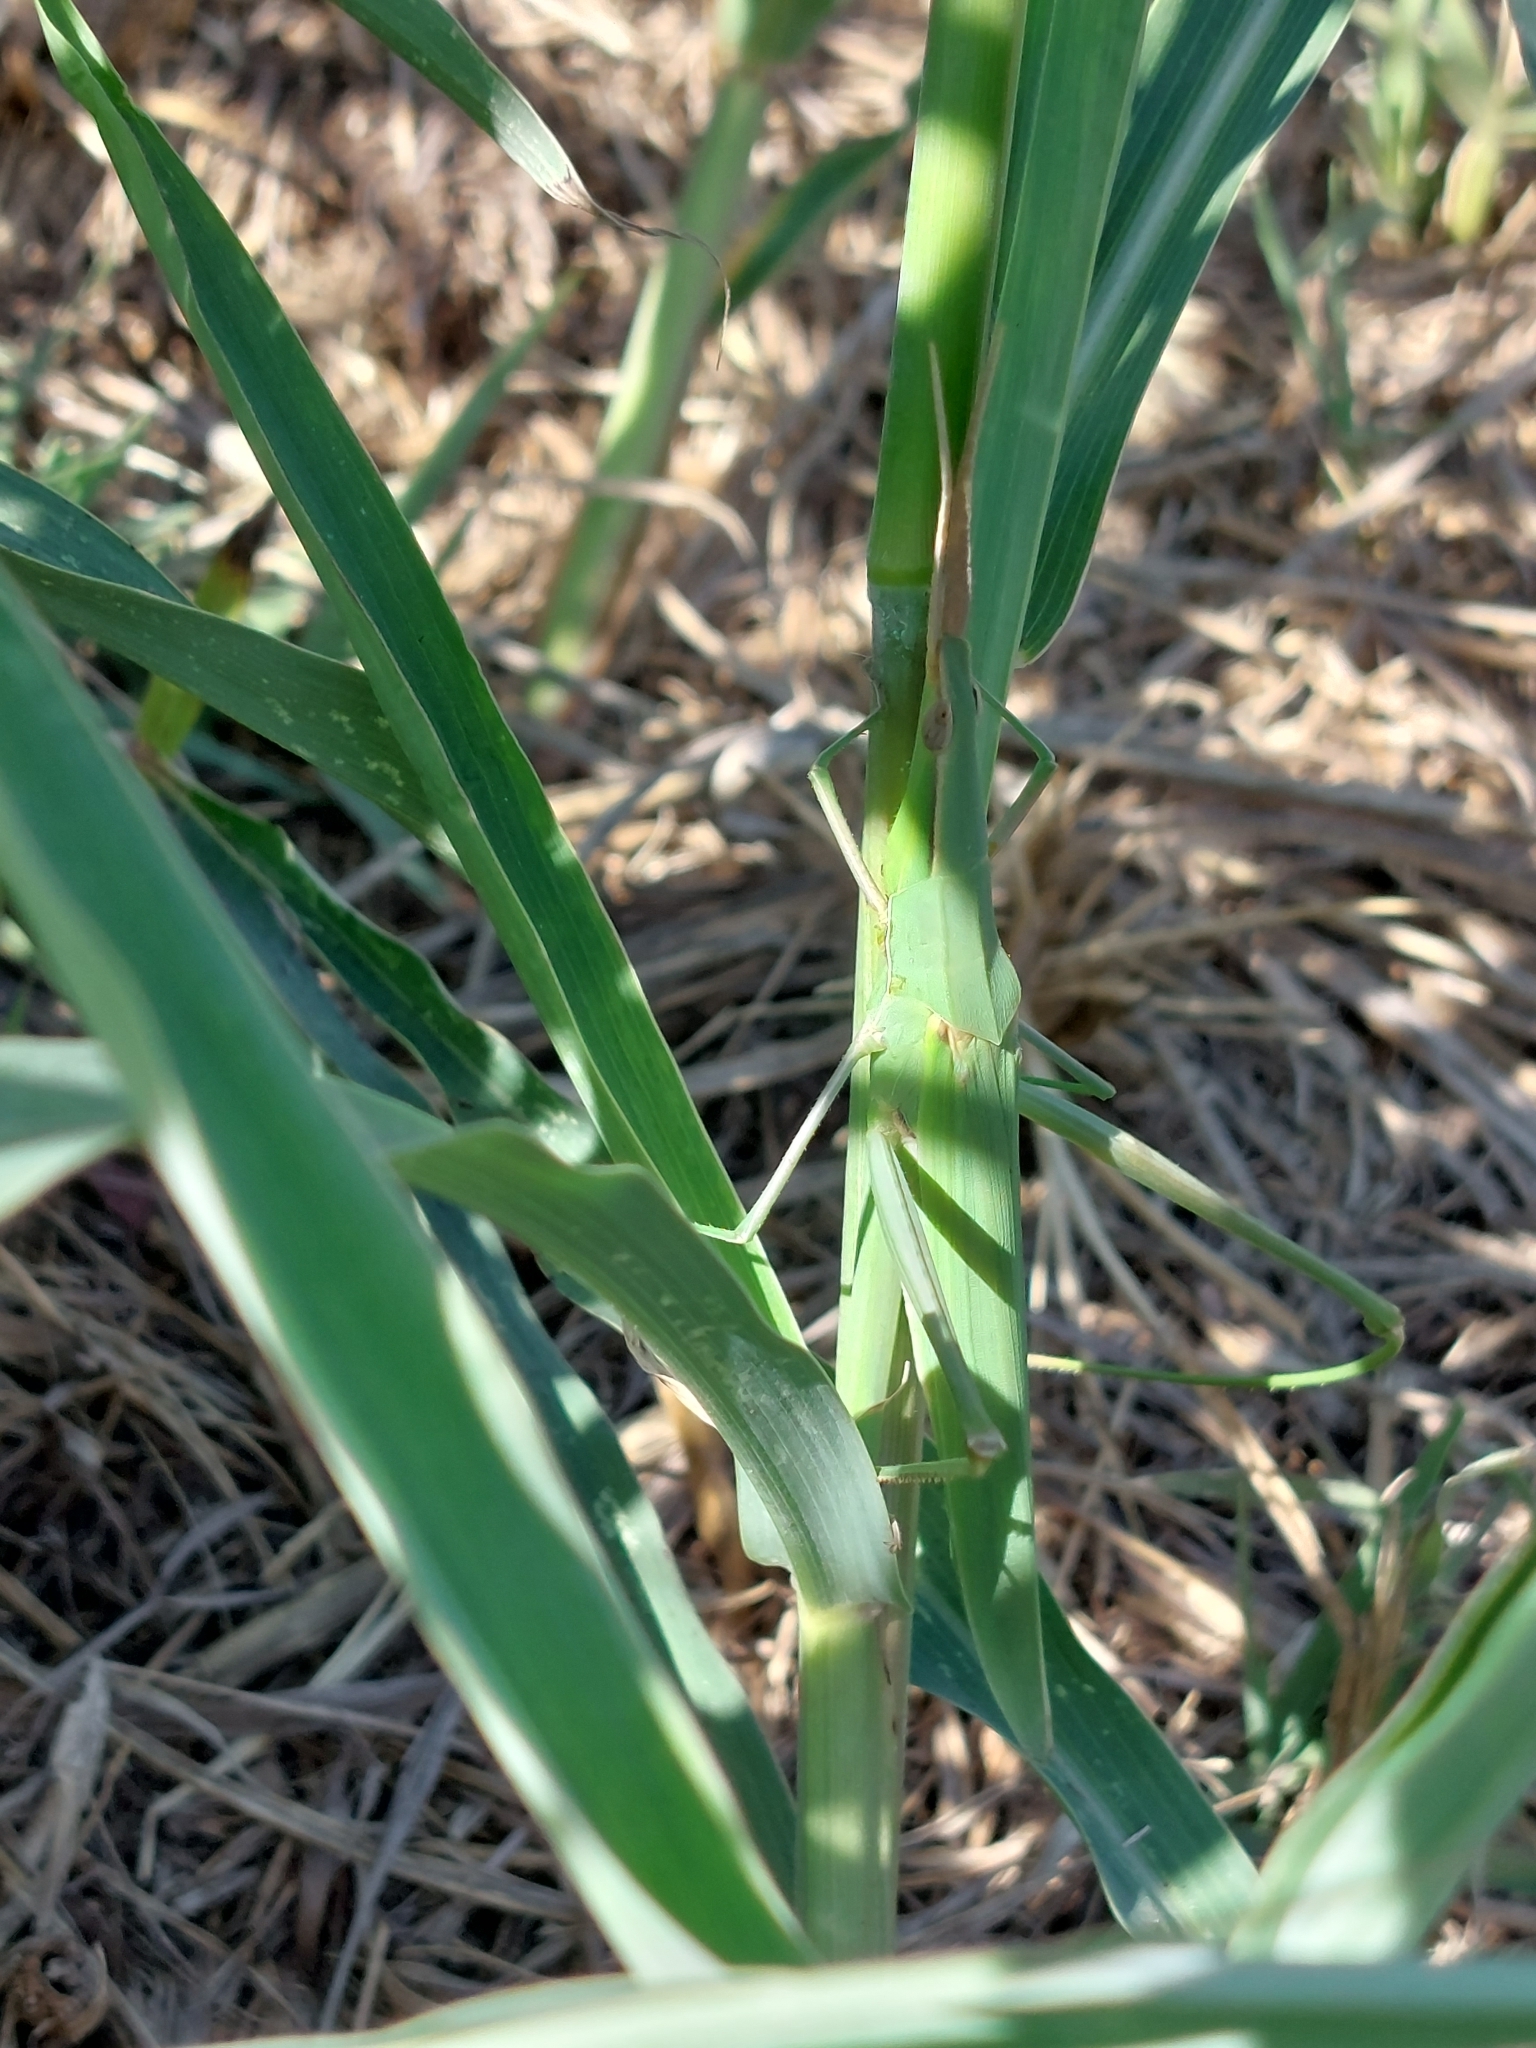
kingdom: Animalia
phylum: Arthropoda
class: Insecta
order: Orthoptera
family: Acrididae
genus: Acrida
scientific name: Acrida ungarica
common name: Common cone-headed grasshopper
